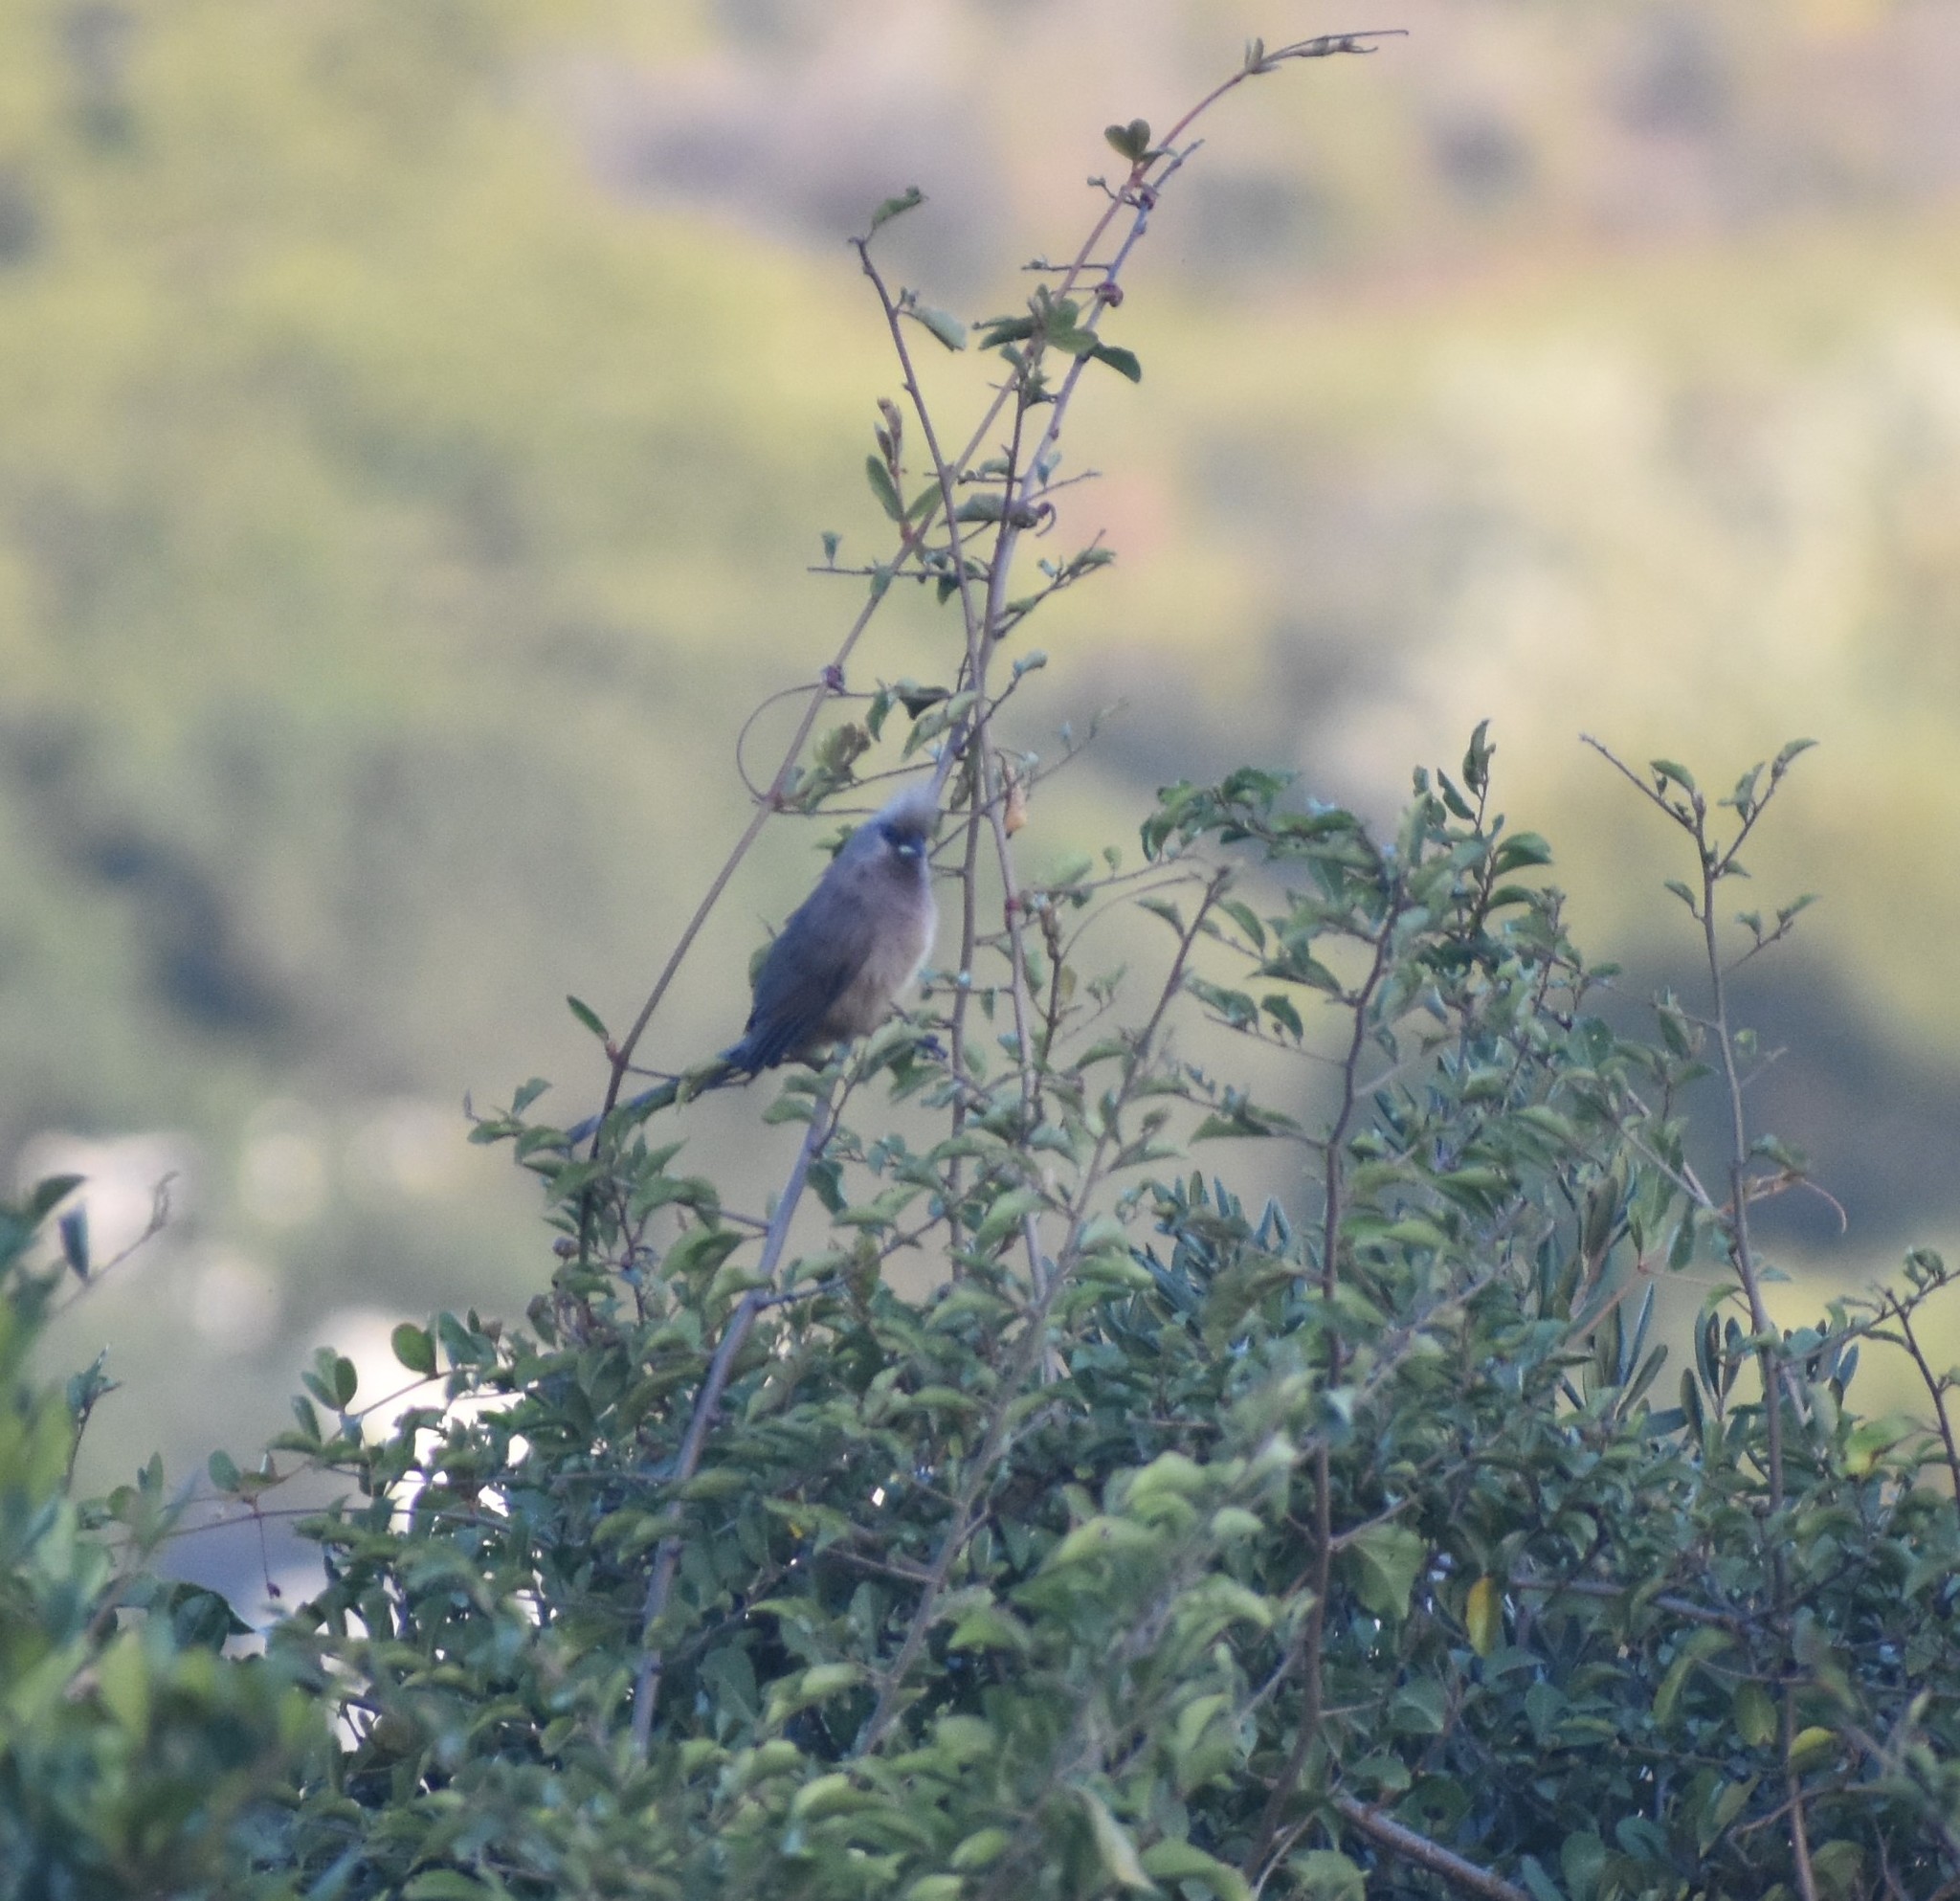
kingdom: Animalia
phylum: Chordata
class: Aves
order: Coliiformes
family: Coliidae
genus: Colius
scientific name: Colius striatus
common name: Speckled mousebird
